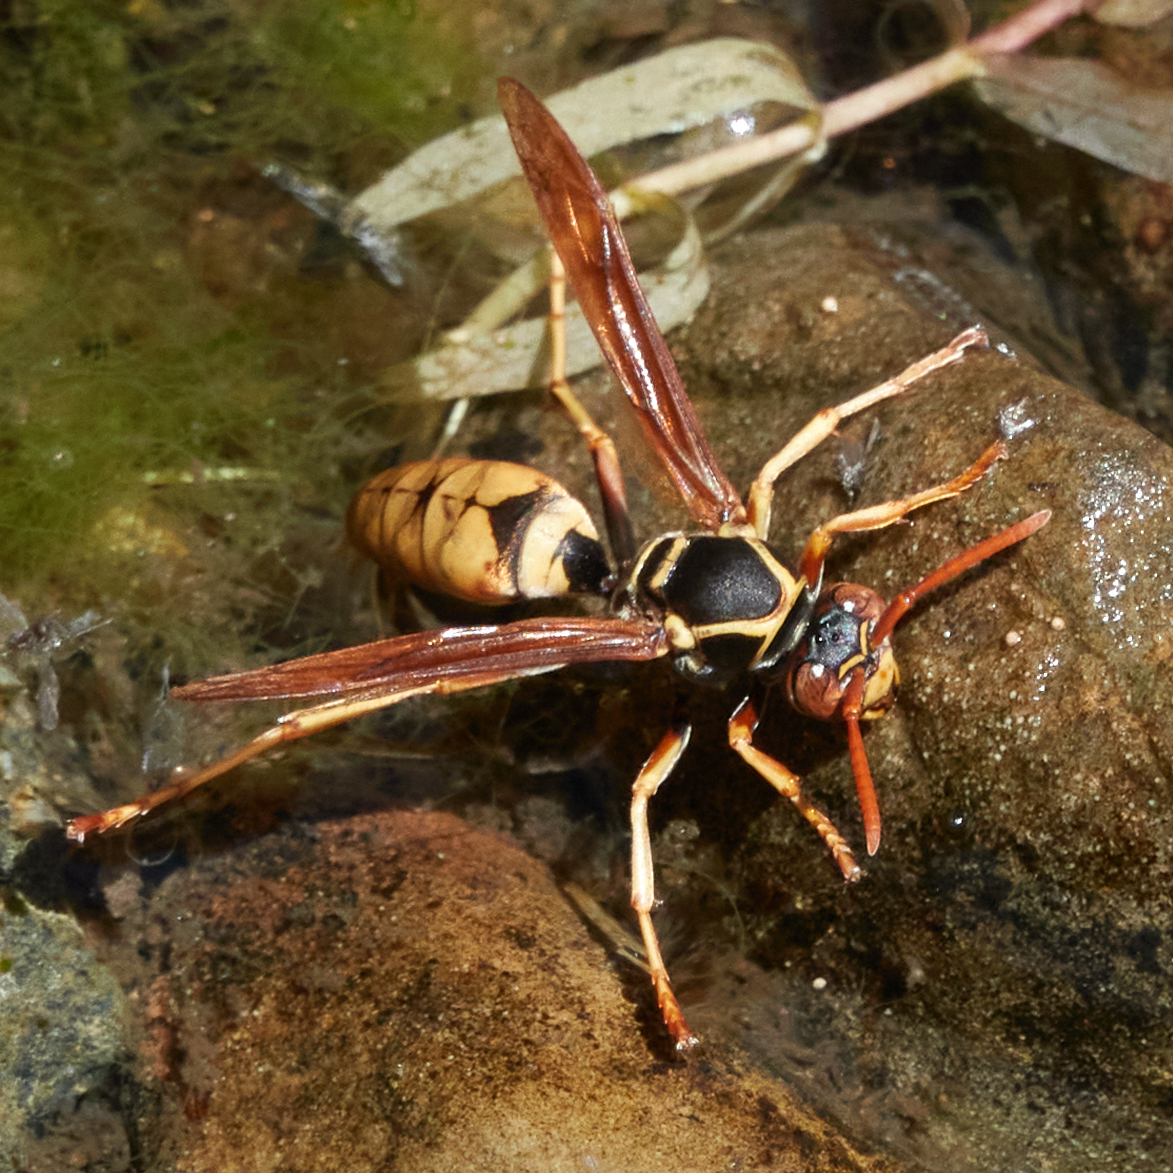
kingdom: Animalia
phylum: Arthropoda
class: Insecta
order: Hymenoptera
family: Eumenidae
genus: Polistes
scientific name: Polistes aurifer
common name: Paper wasp
